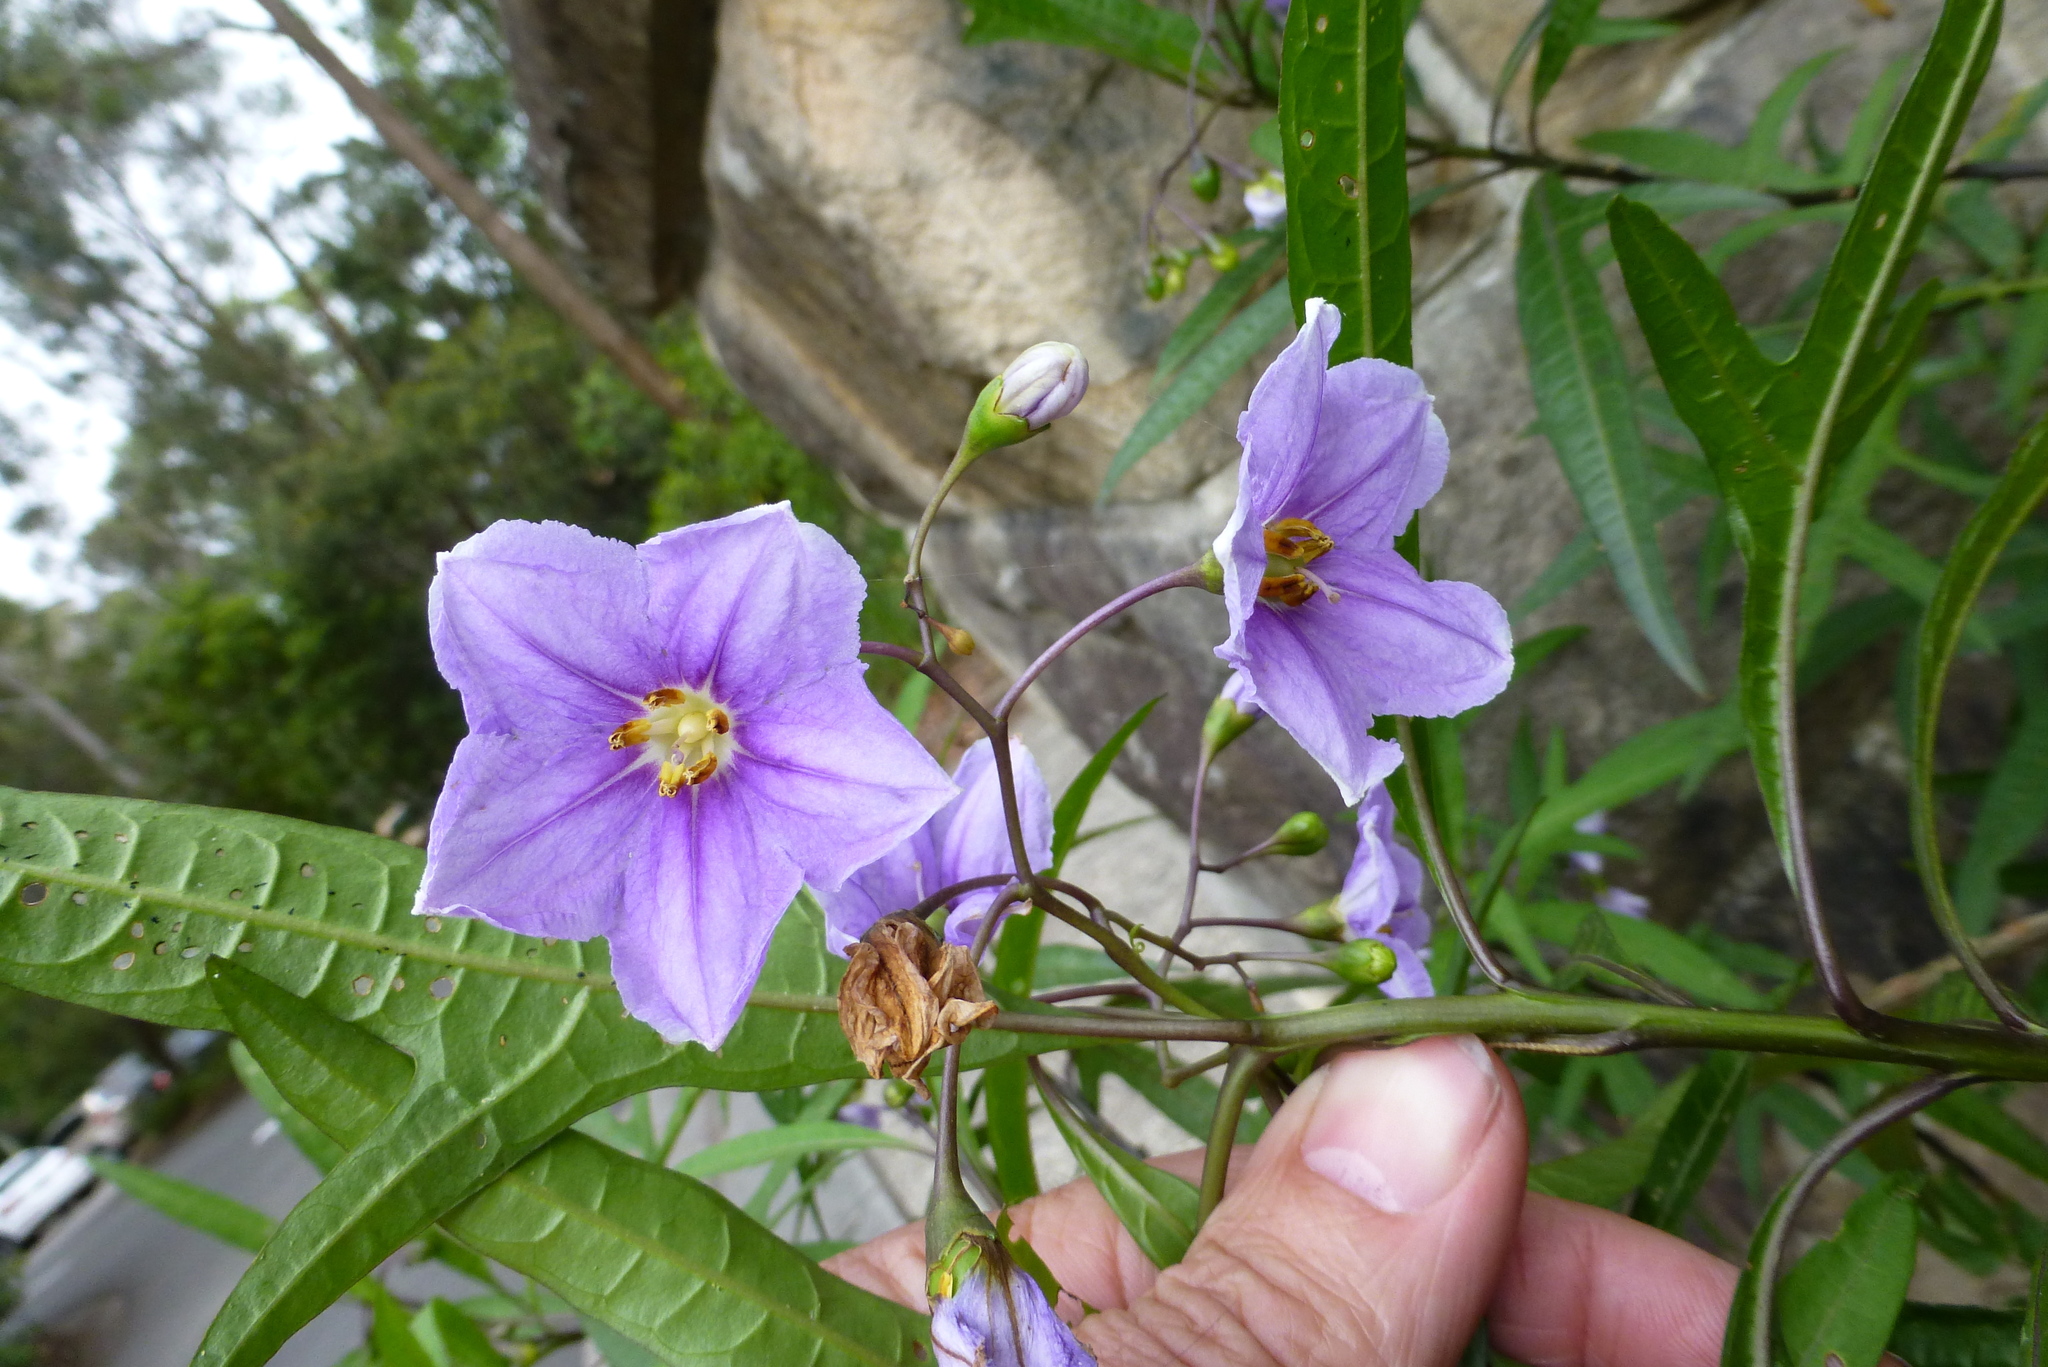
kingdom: Plantae
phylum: Tracheophyta
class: Magnoliopsida
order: Solanales
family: Solanaceae
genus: Solanum
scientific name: Solanum aviculare
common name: New zealand nightshade
